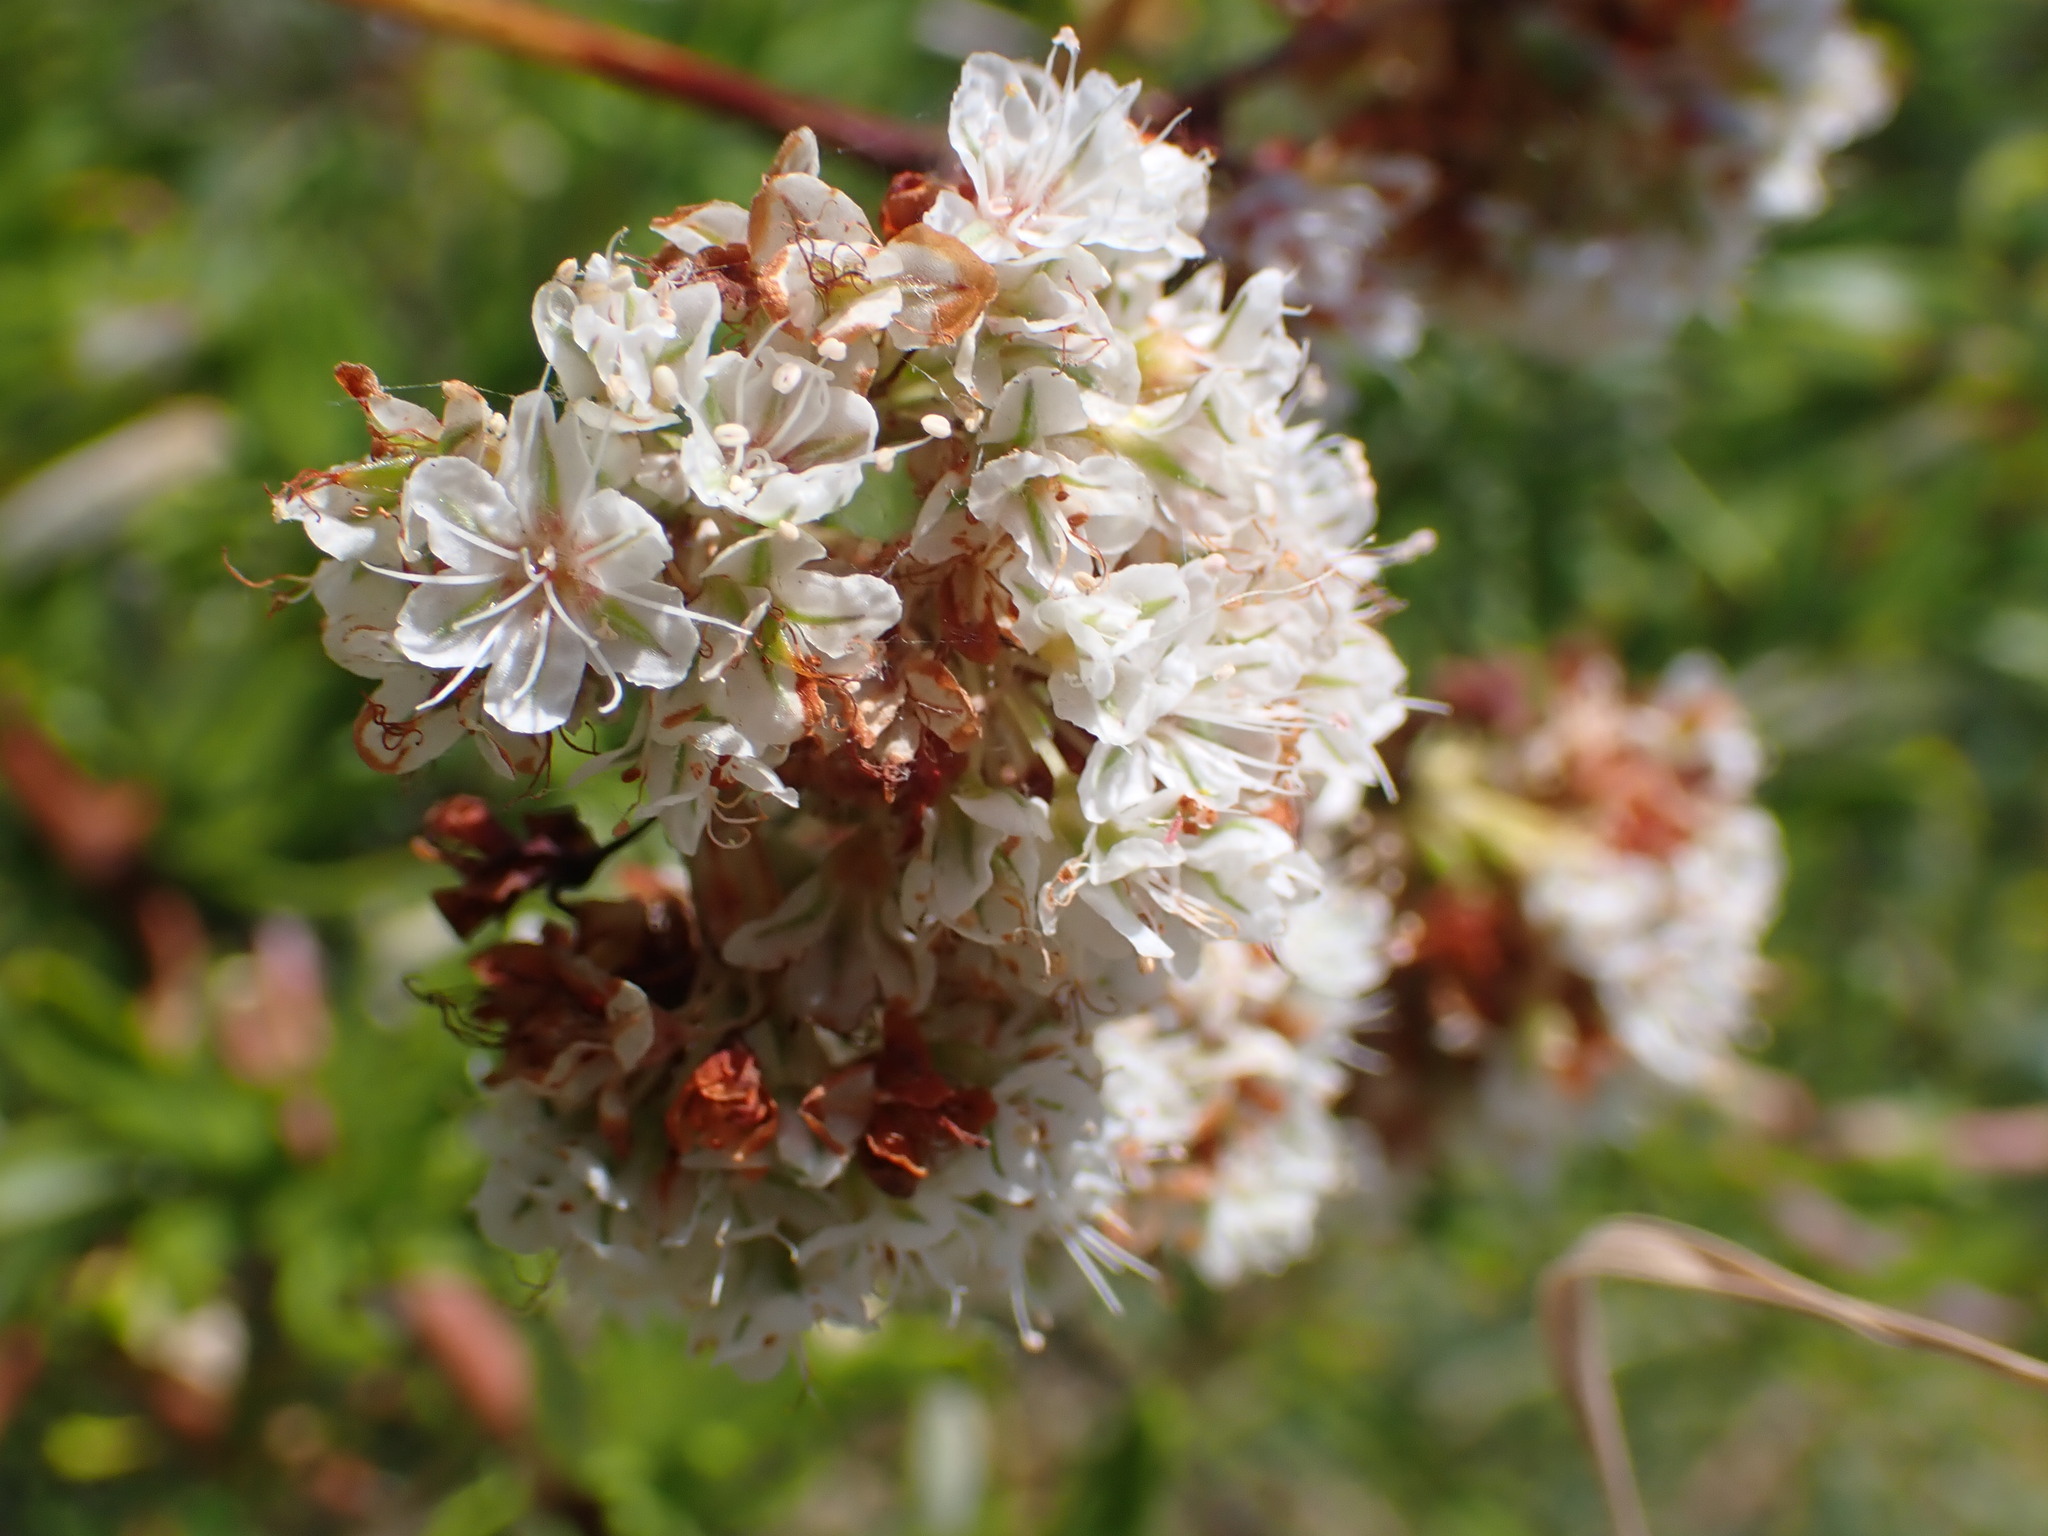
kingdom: Plantae
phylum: Tracheophyta
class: Magnoliopsida
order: Caryophyllales
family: Polygonaceae
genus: Eriogonum
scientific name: Eriogonum fasciculatum
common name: California wild buckwheat
